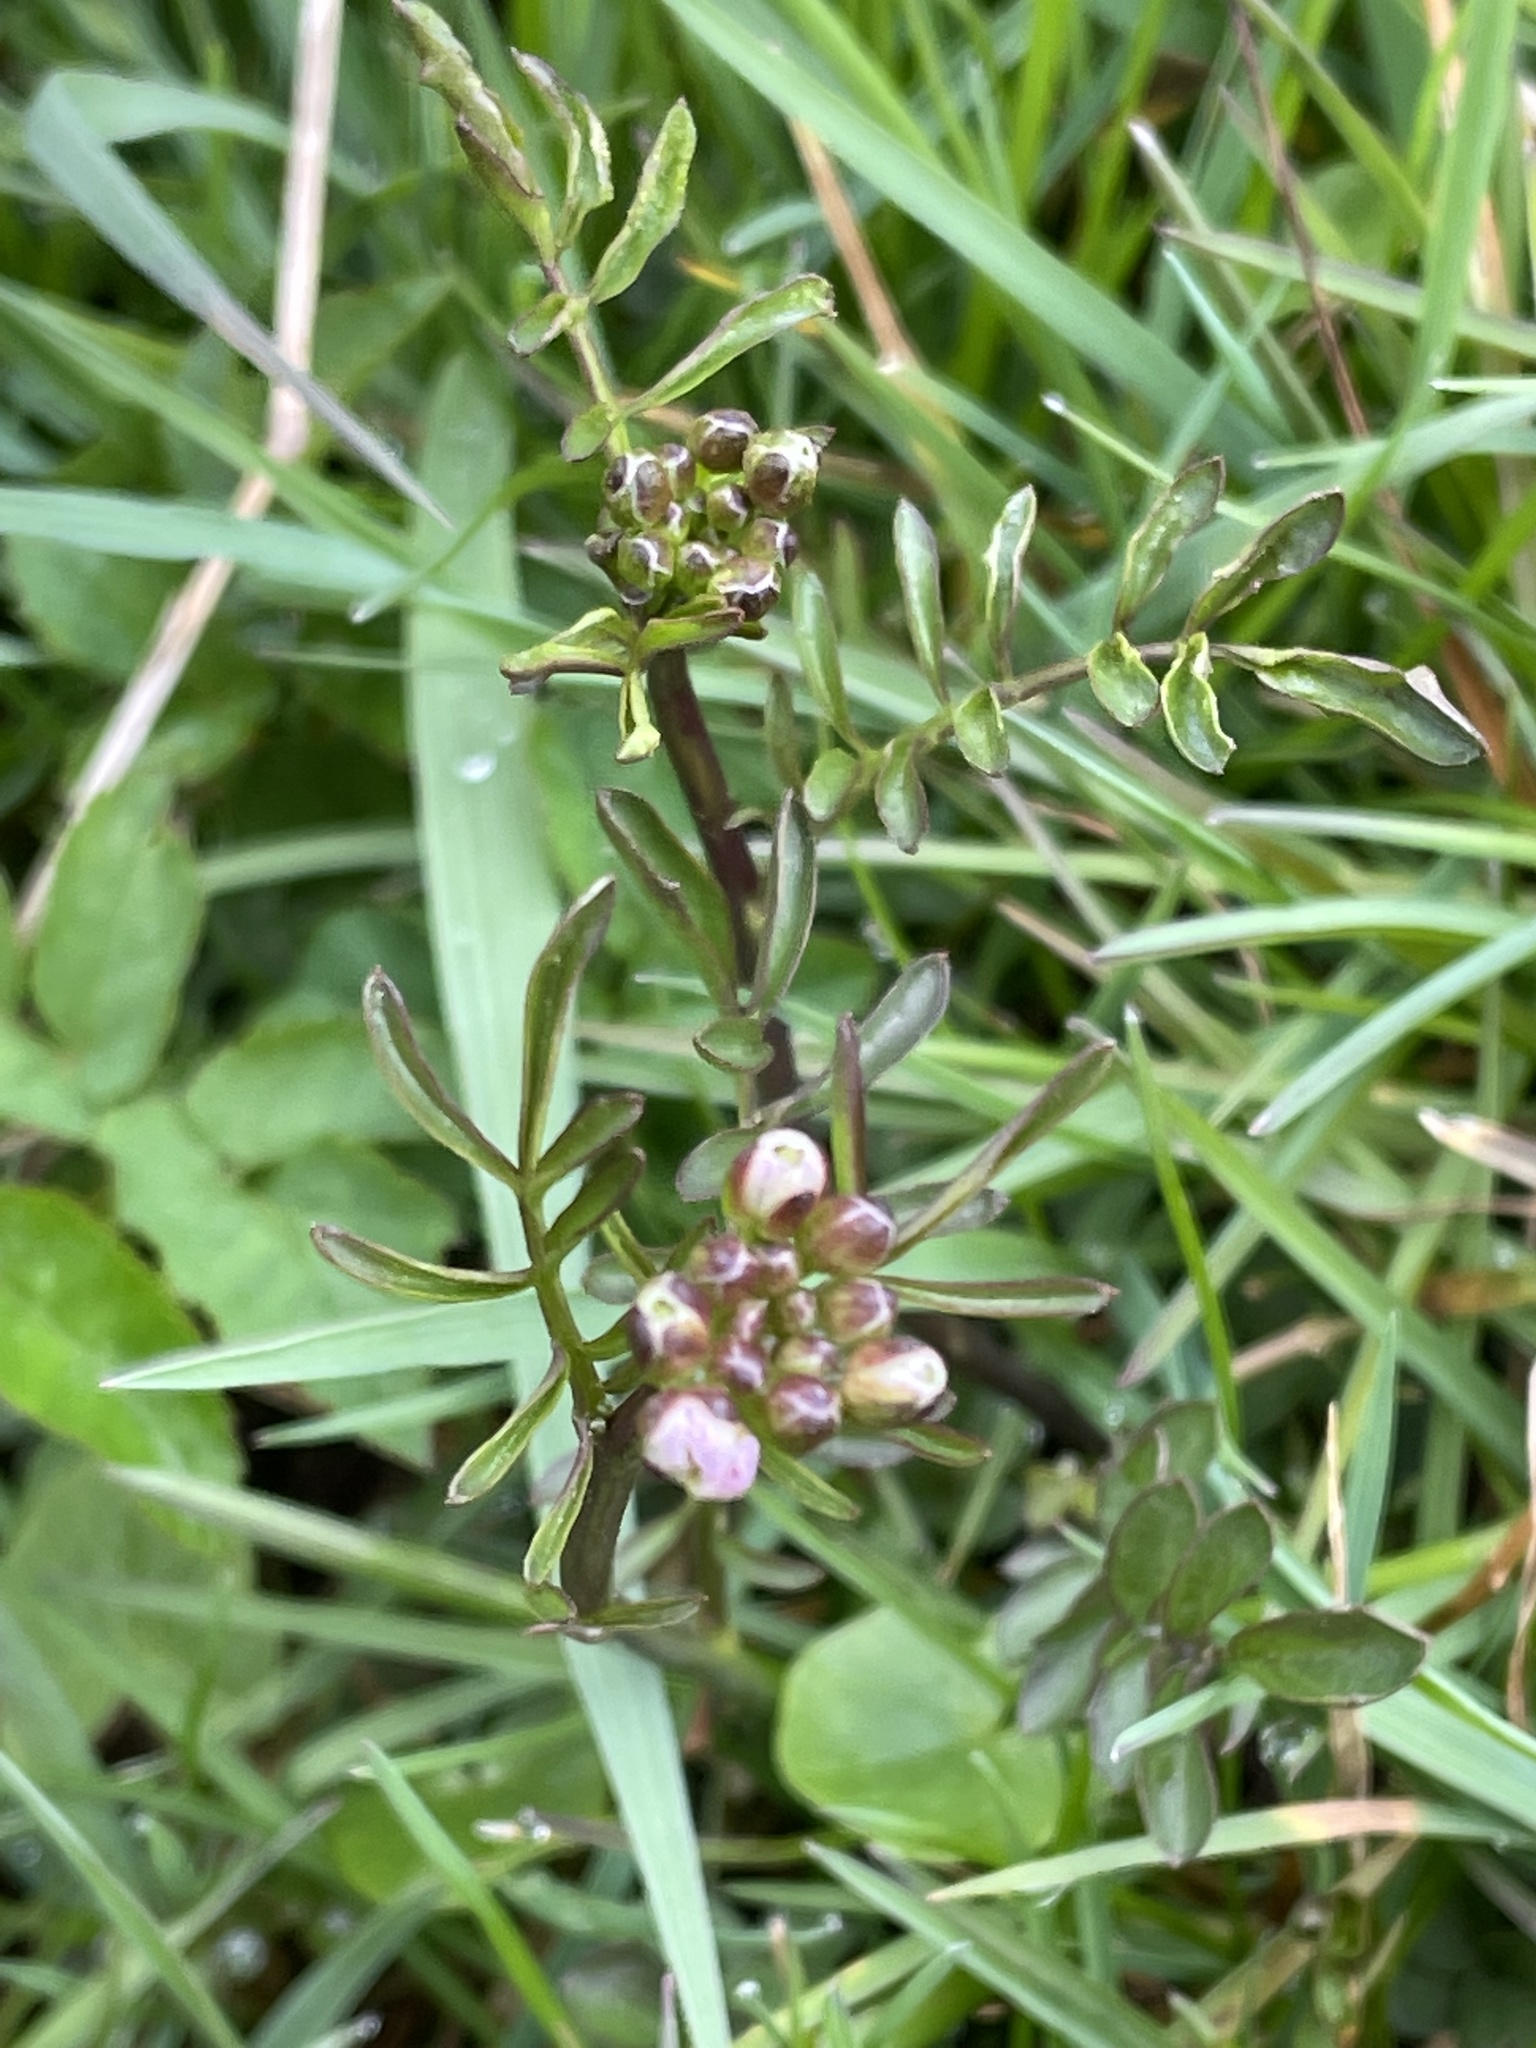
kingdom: Plantae
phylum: Tracheophyta
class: Magnoliopsida
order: Brassicales
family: Brassicaceae
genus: Cardamine
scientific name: Cardamine pratensis
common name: Cuckoo flower
